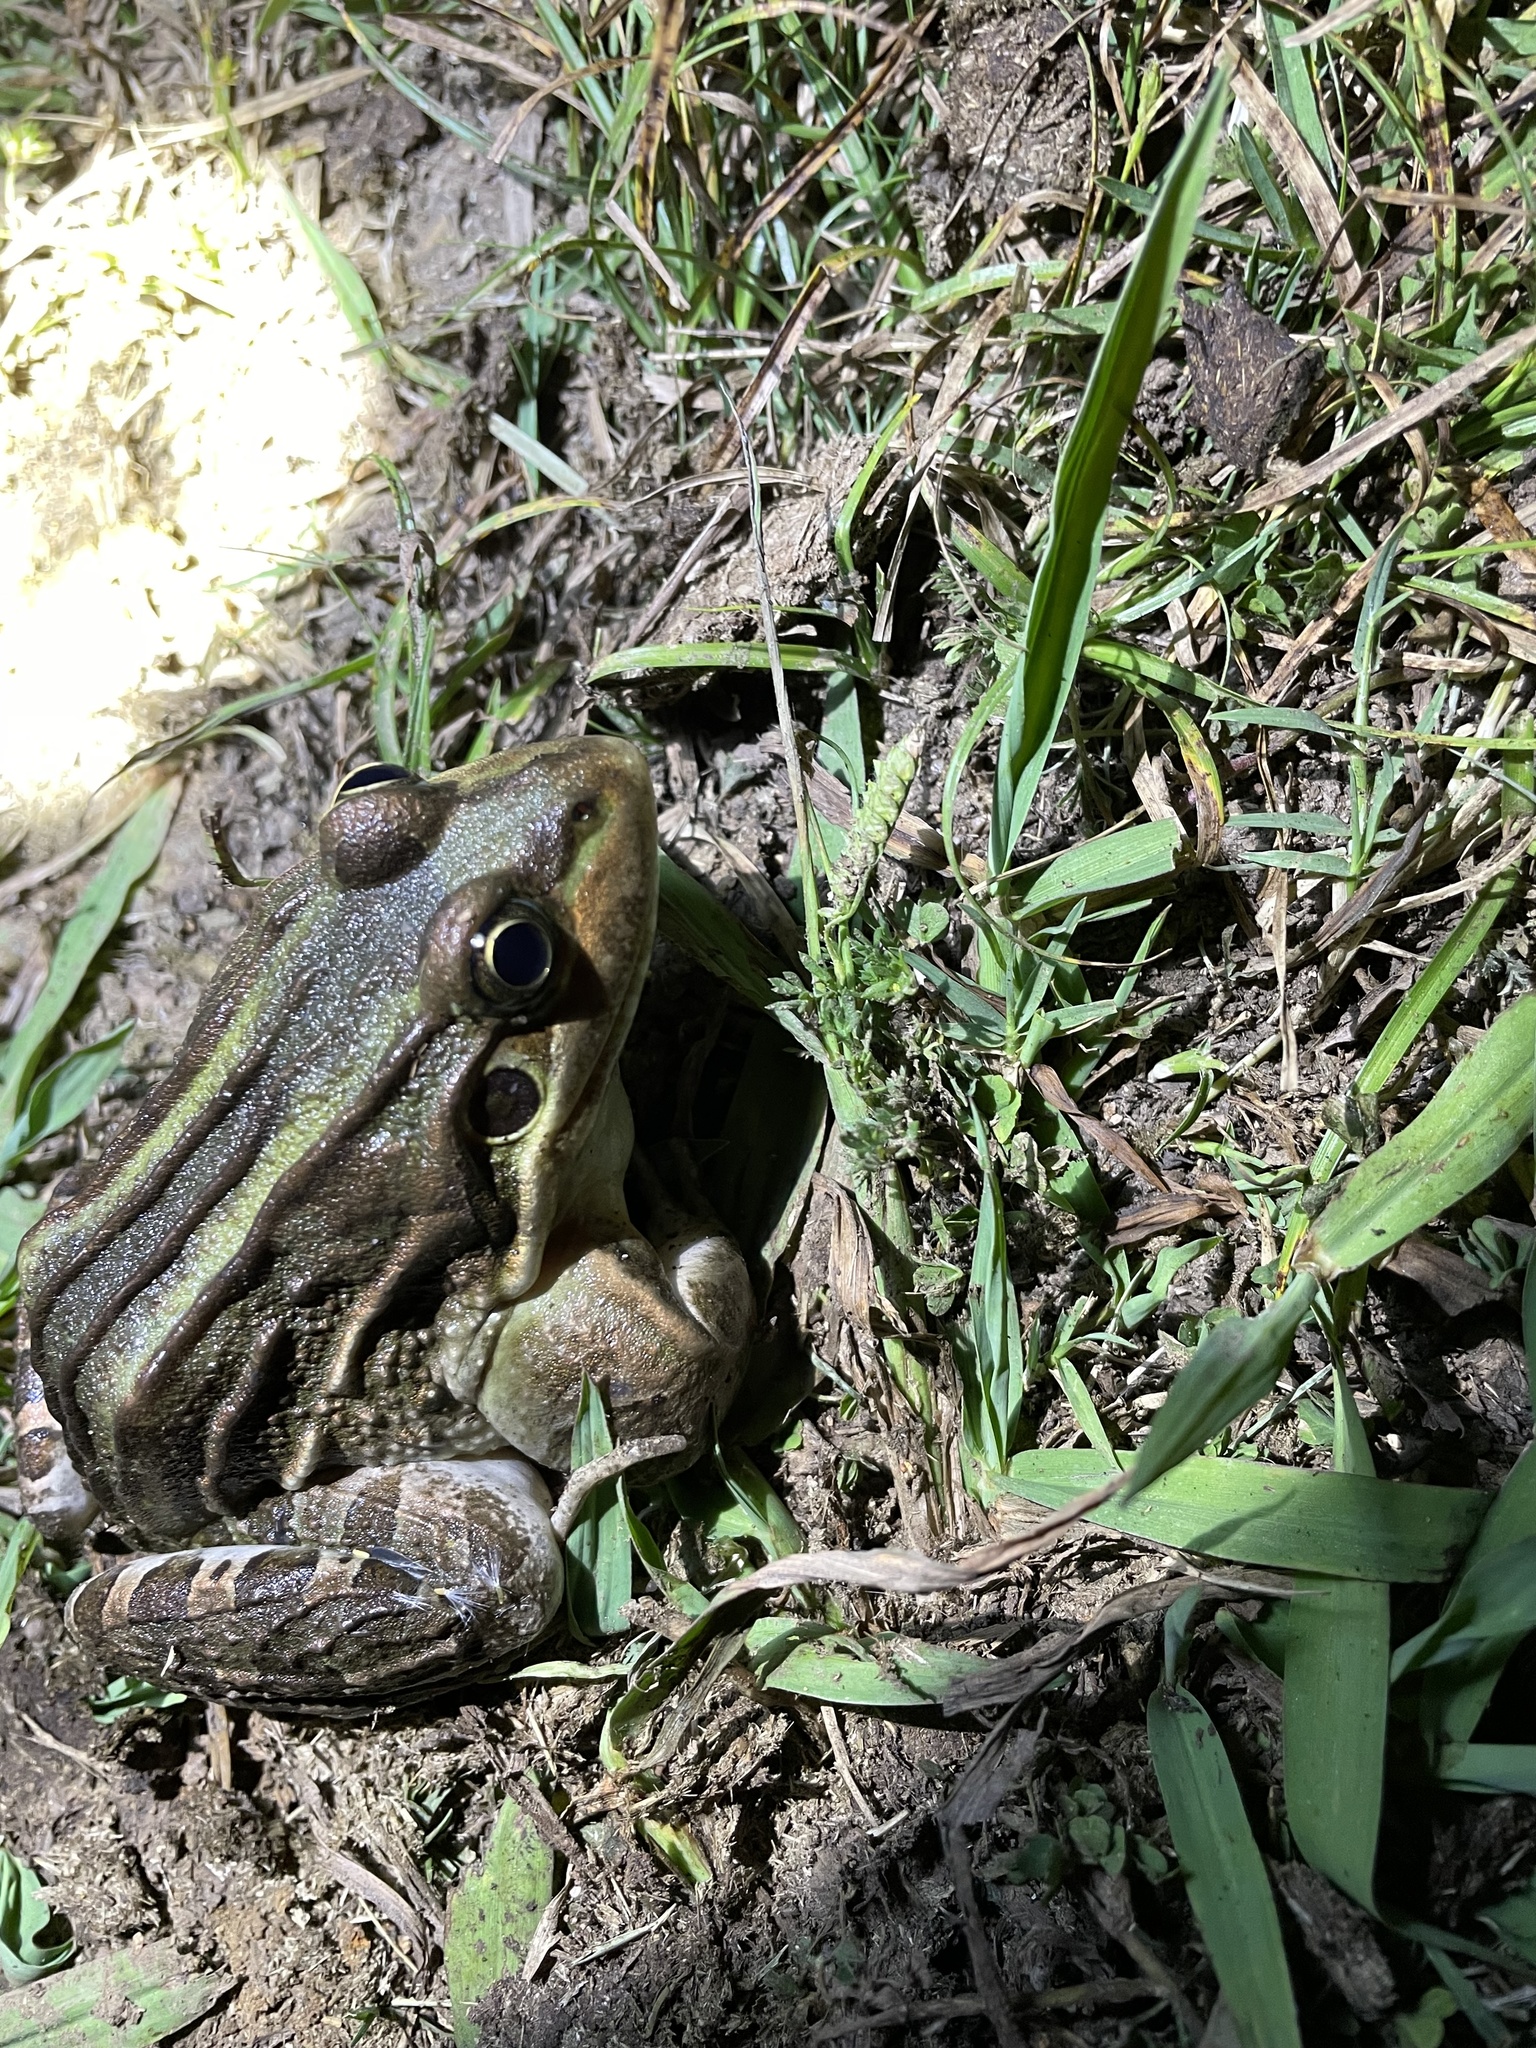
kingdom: Animalia
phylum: Chordata
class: Amphibia
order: Anura
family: Leptodactylidae
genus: Leptodactylus
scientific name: Leptodactylus luctator
